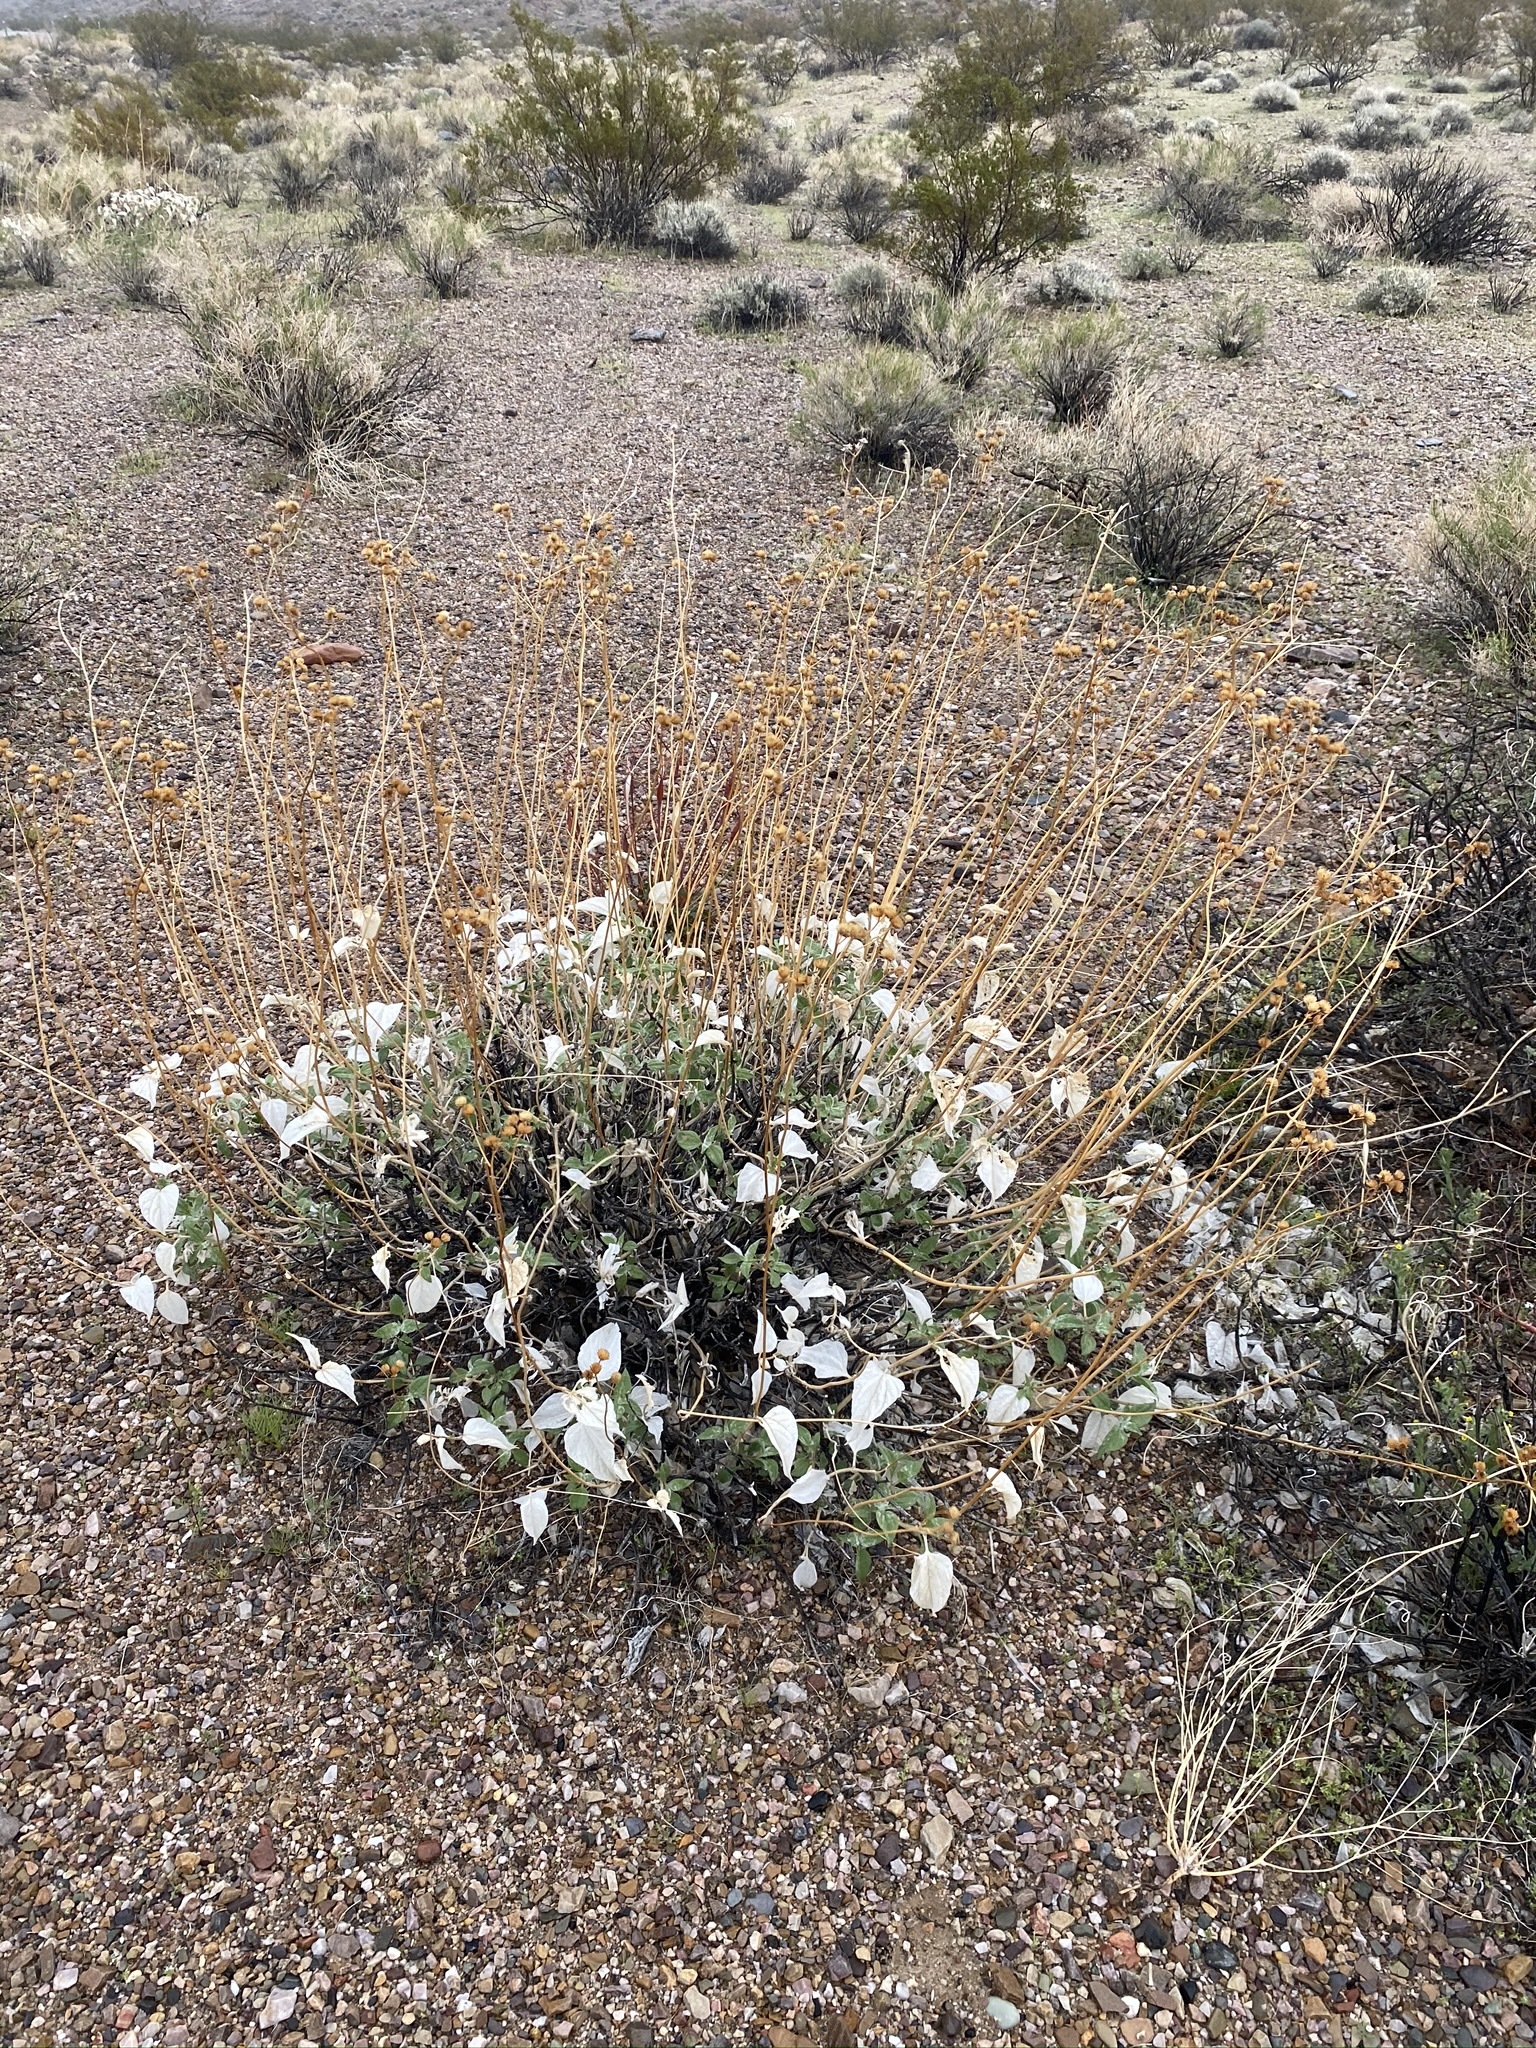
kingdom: Plantae
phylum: Tracheophyta
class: Magnoliopsida
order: Asterales
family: Asteraceae
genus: Bahiopsis
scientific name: Bahiopsis parishii
